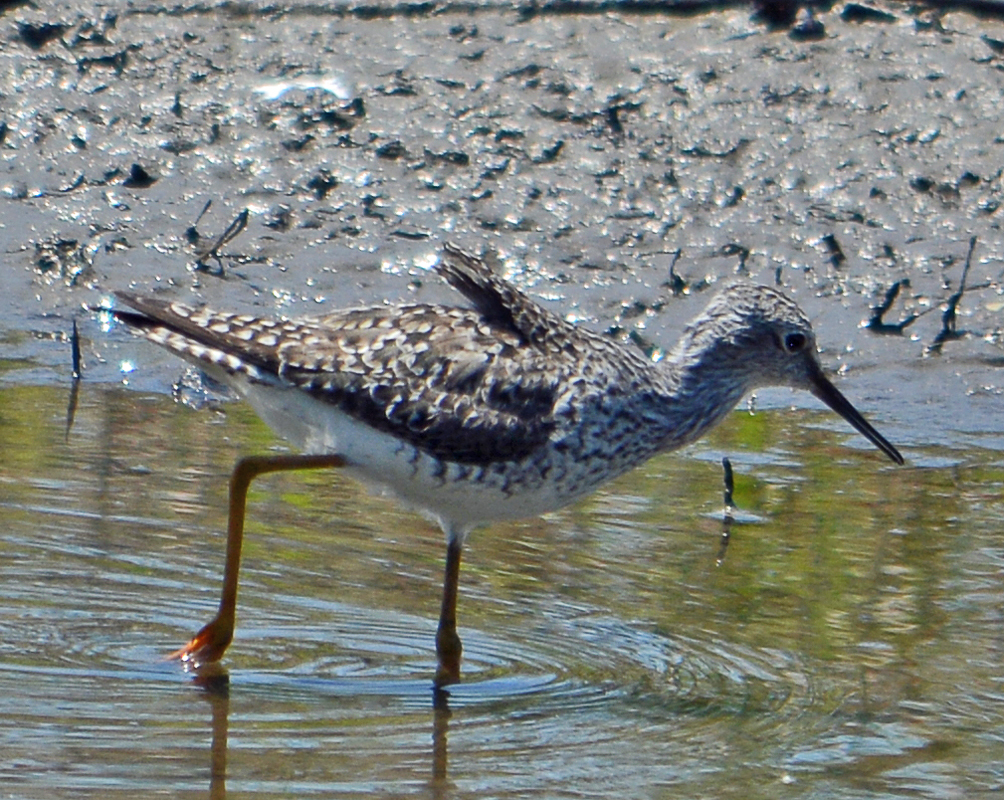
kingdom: Animalia
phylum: Chordata
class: Aves
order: Charadriiformes
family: Scolopacidae
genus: Tringa
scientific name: Tringa flavipes
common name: Lesser yellowlegs
